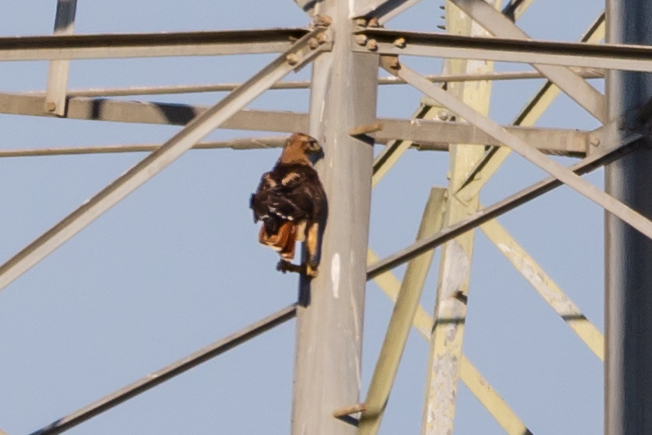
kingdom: Animalia
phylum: Chordata
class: Aves
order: Accipitriformes
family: Accipitridae
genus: Buteo
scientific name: Buteo jamaicensis
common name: Red-tailed hawk
